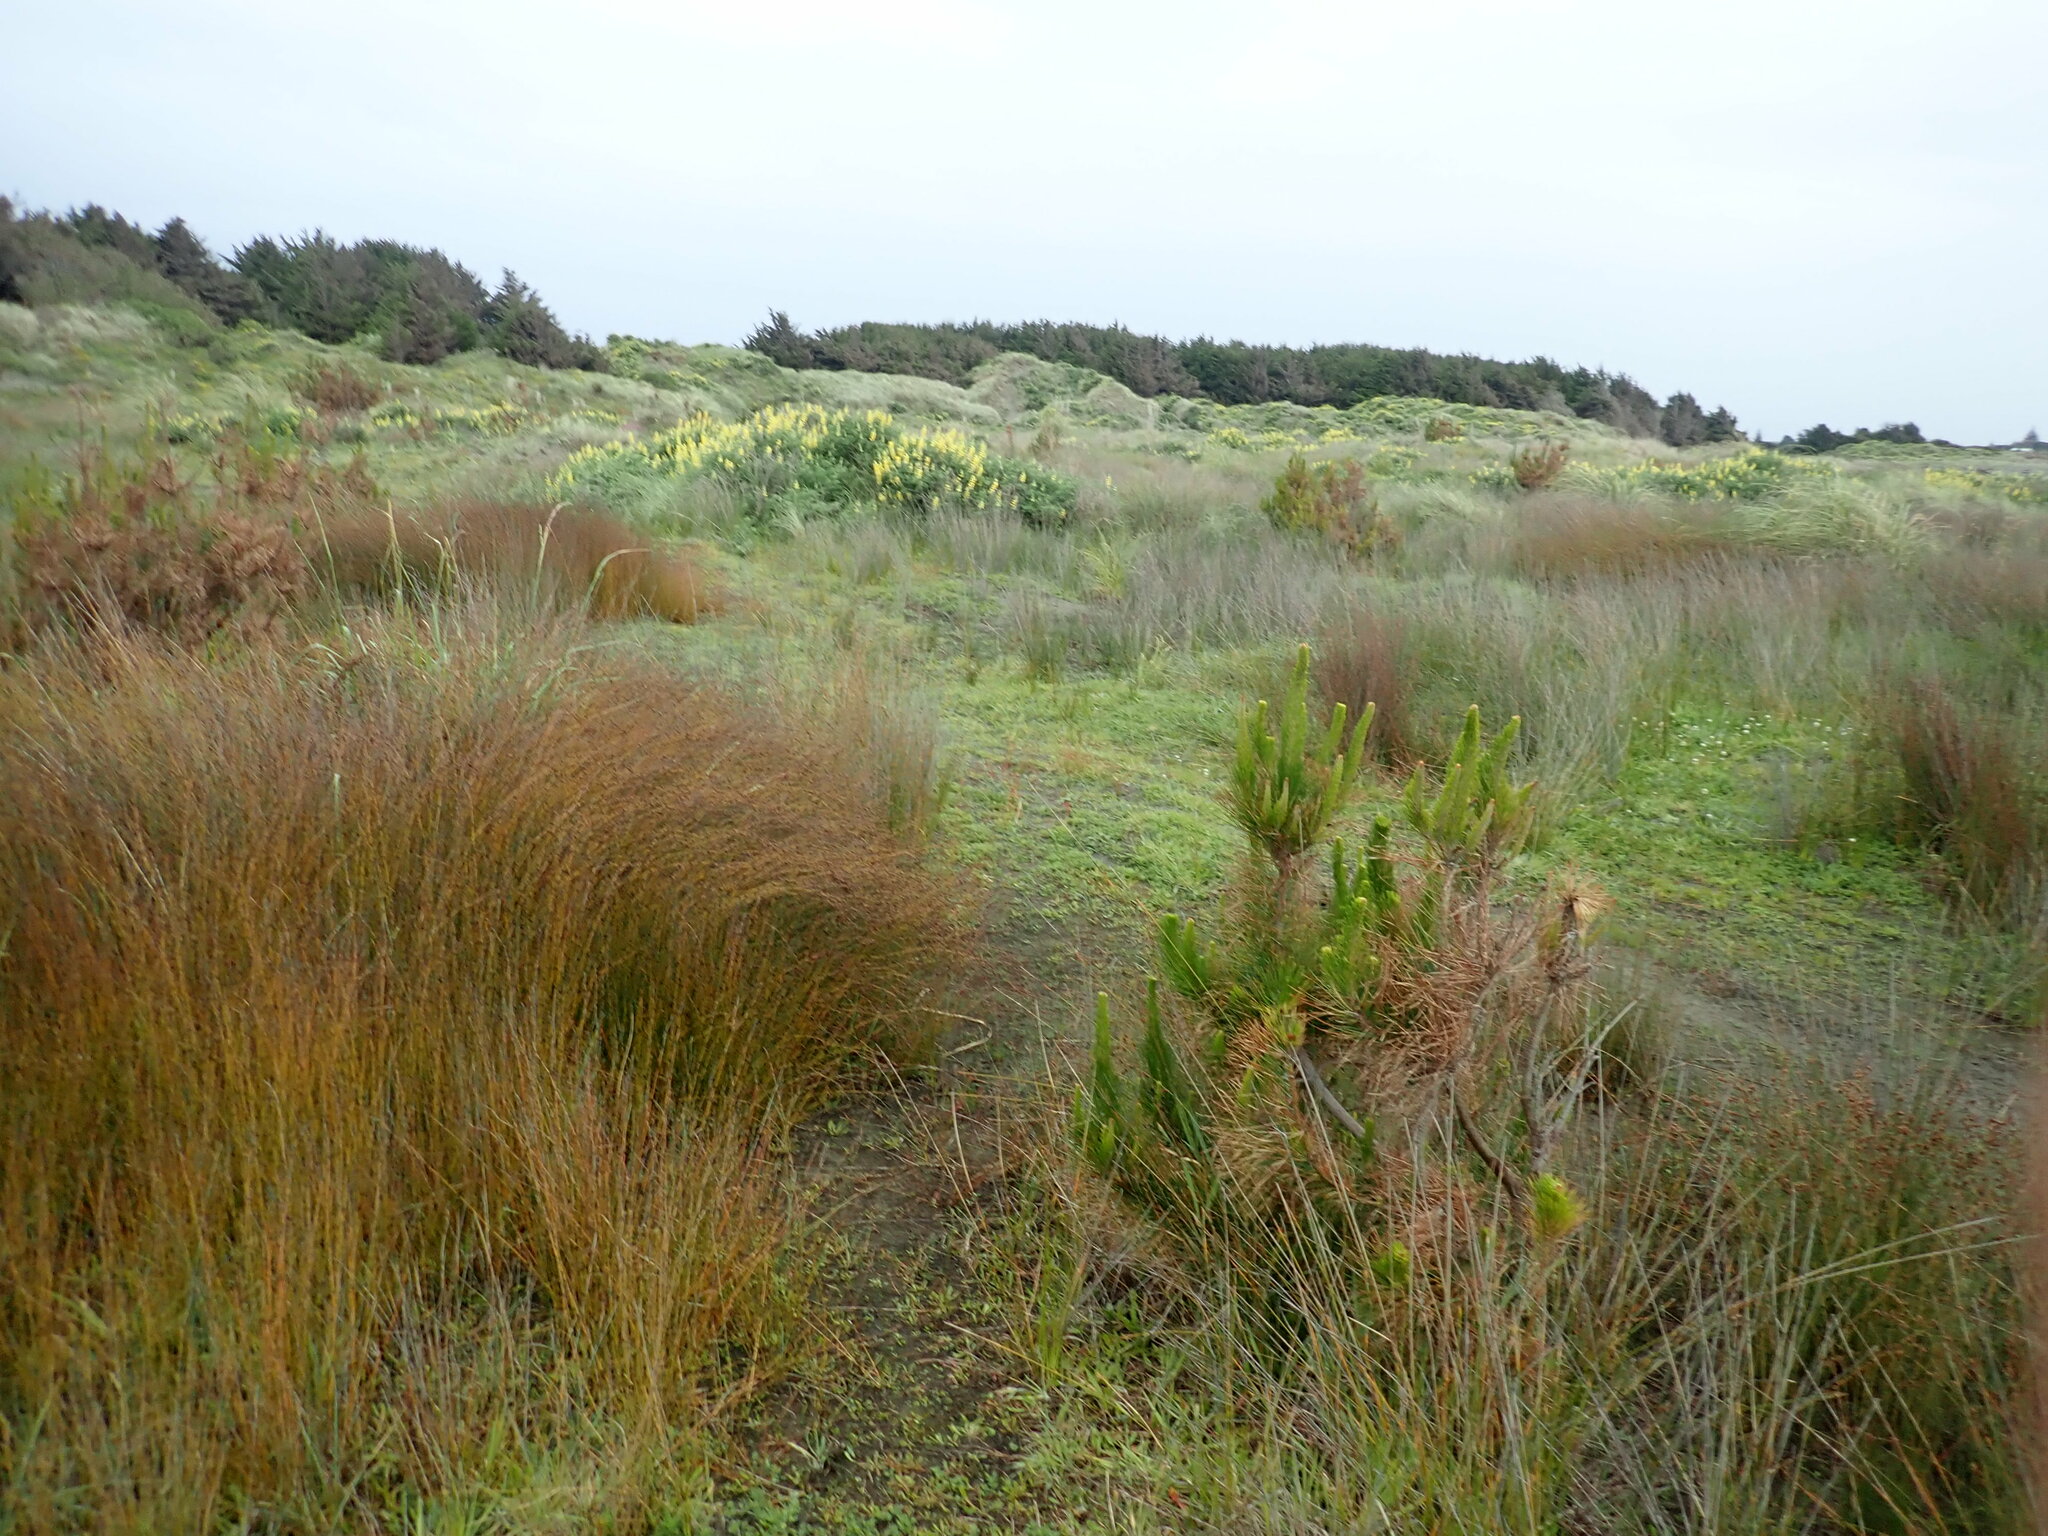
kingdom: Plantae
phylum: Tracheophyta
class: Liliopsida
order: Poales
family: Restionaceae
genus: Apodasmia
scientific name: Apodasmia similis
